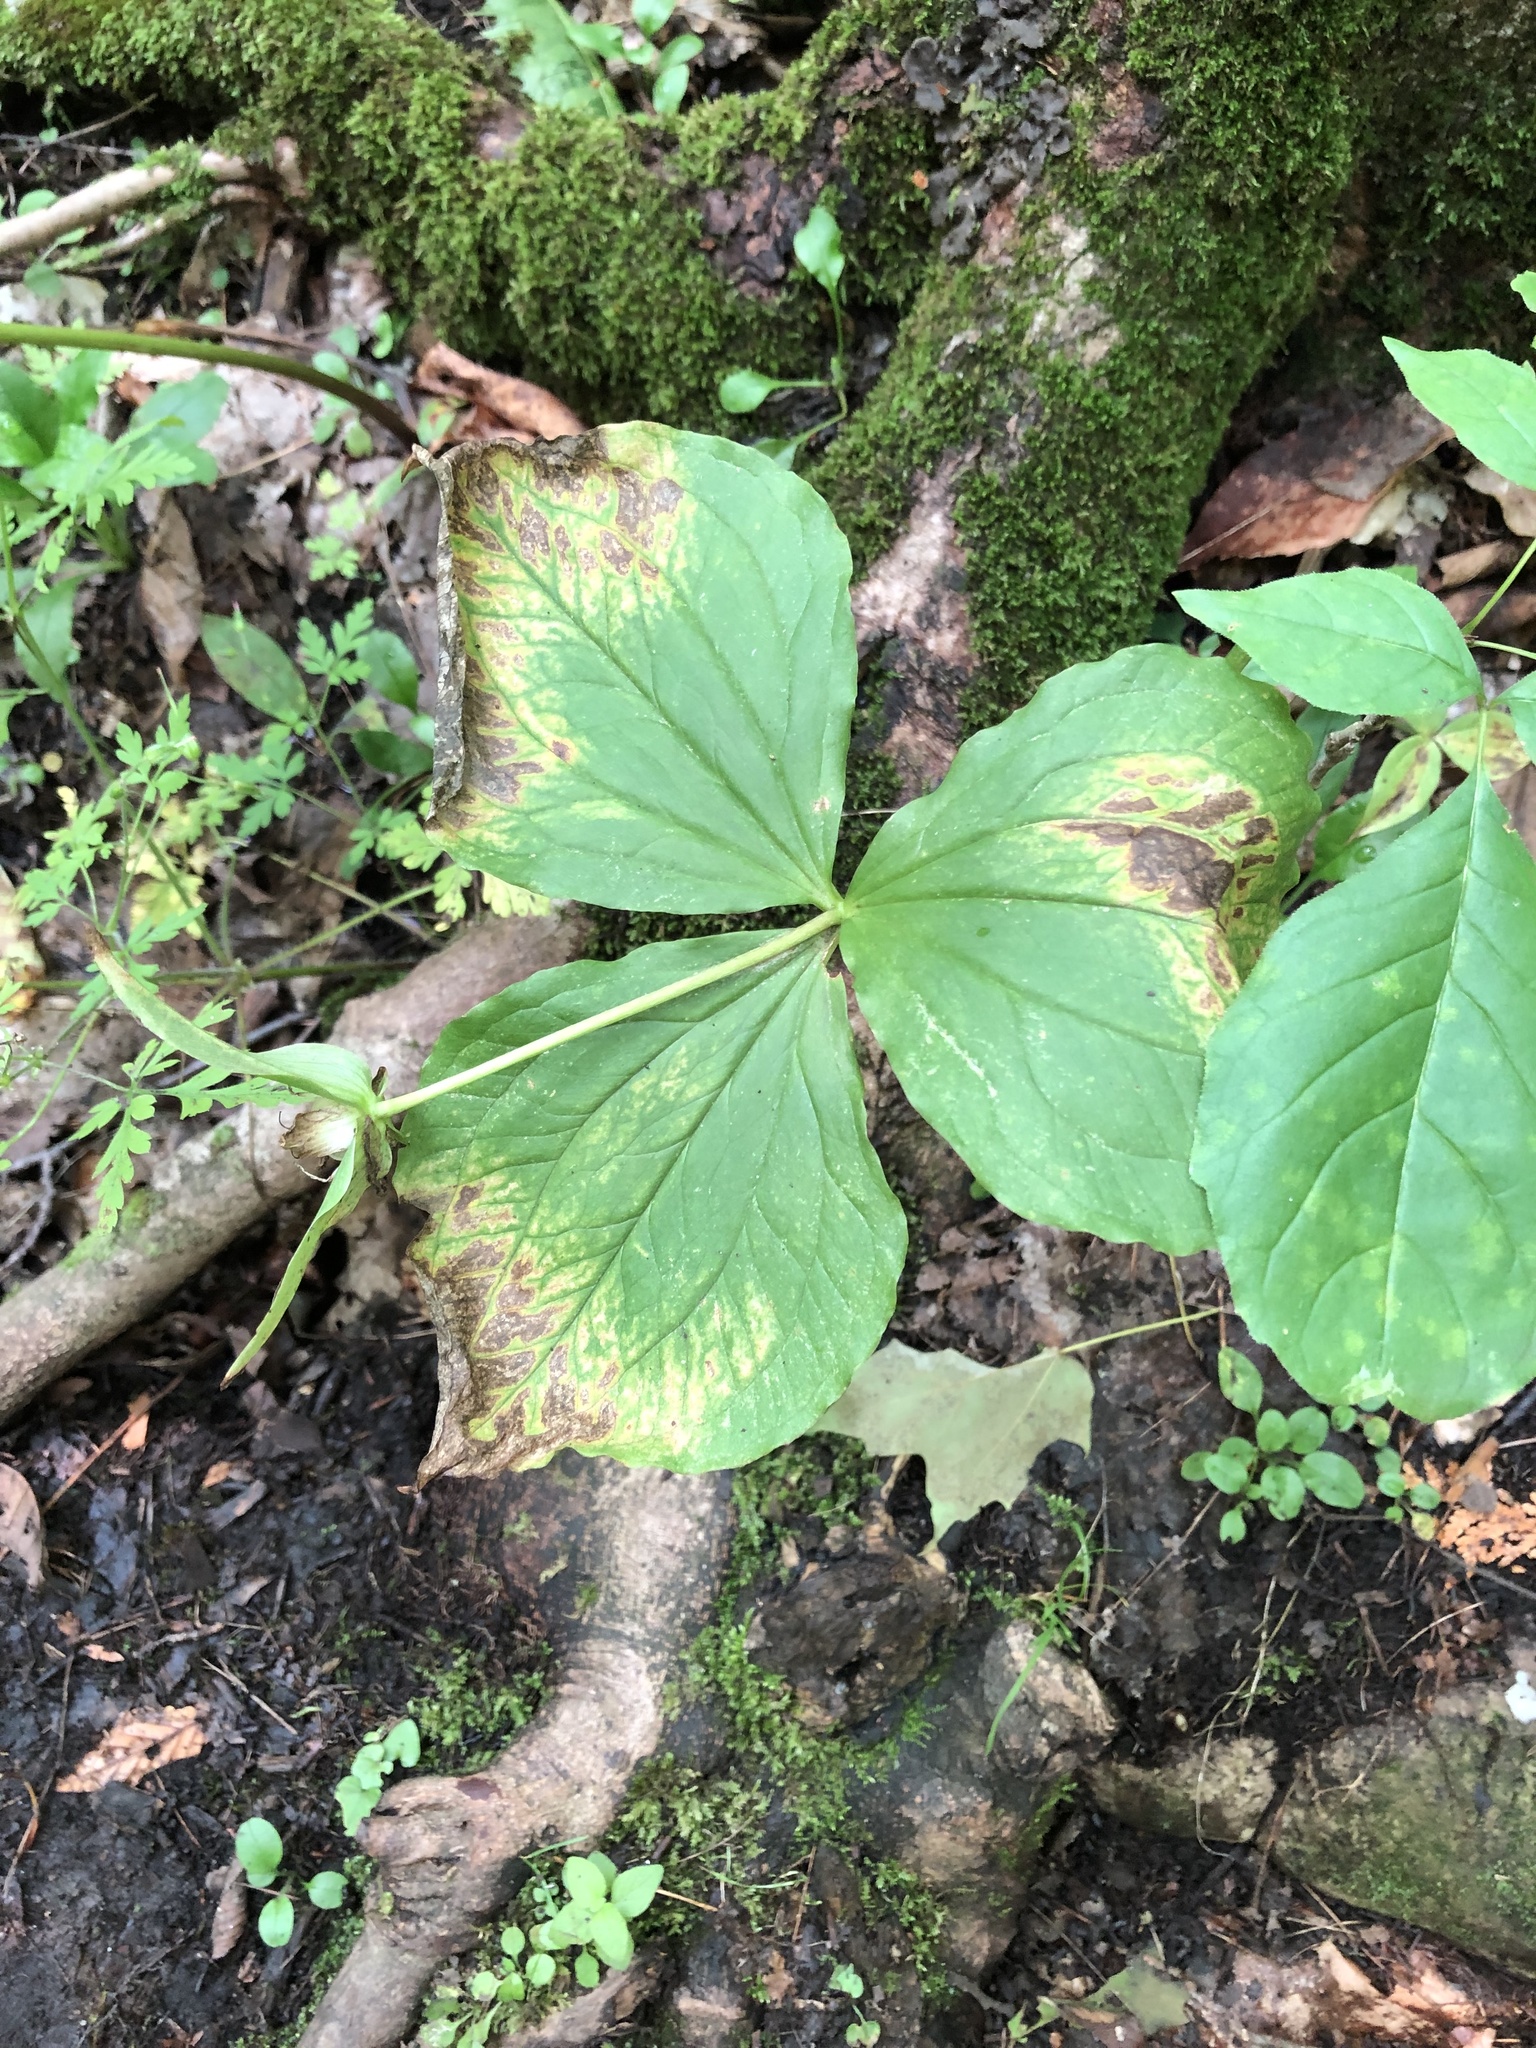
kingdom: Plantae
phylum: Tracheophyta
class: Liliopsida
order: Liliales
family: Melanthiaceae
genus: Trillium
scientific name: Trillium grandiflorum
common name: Great white trillium
